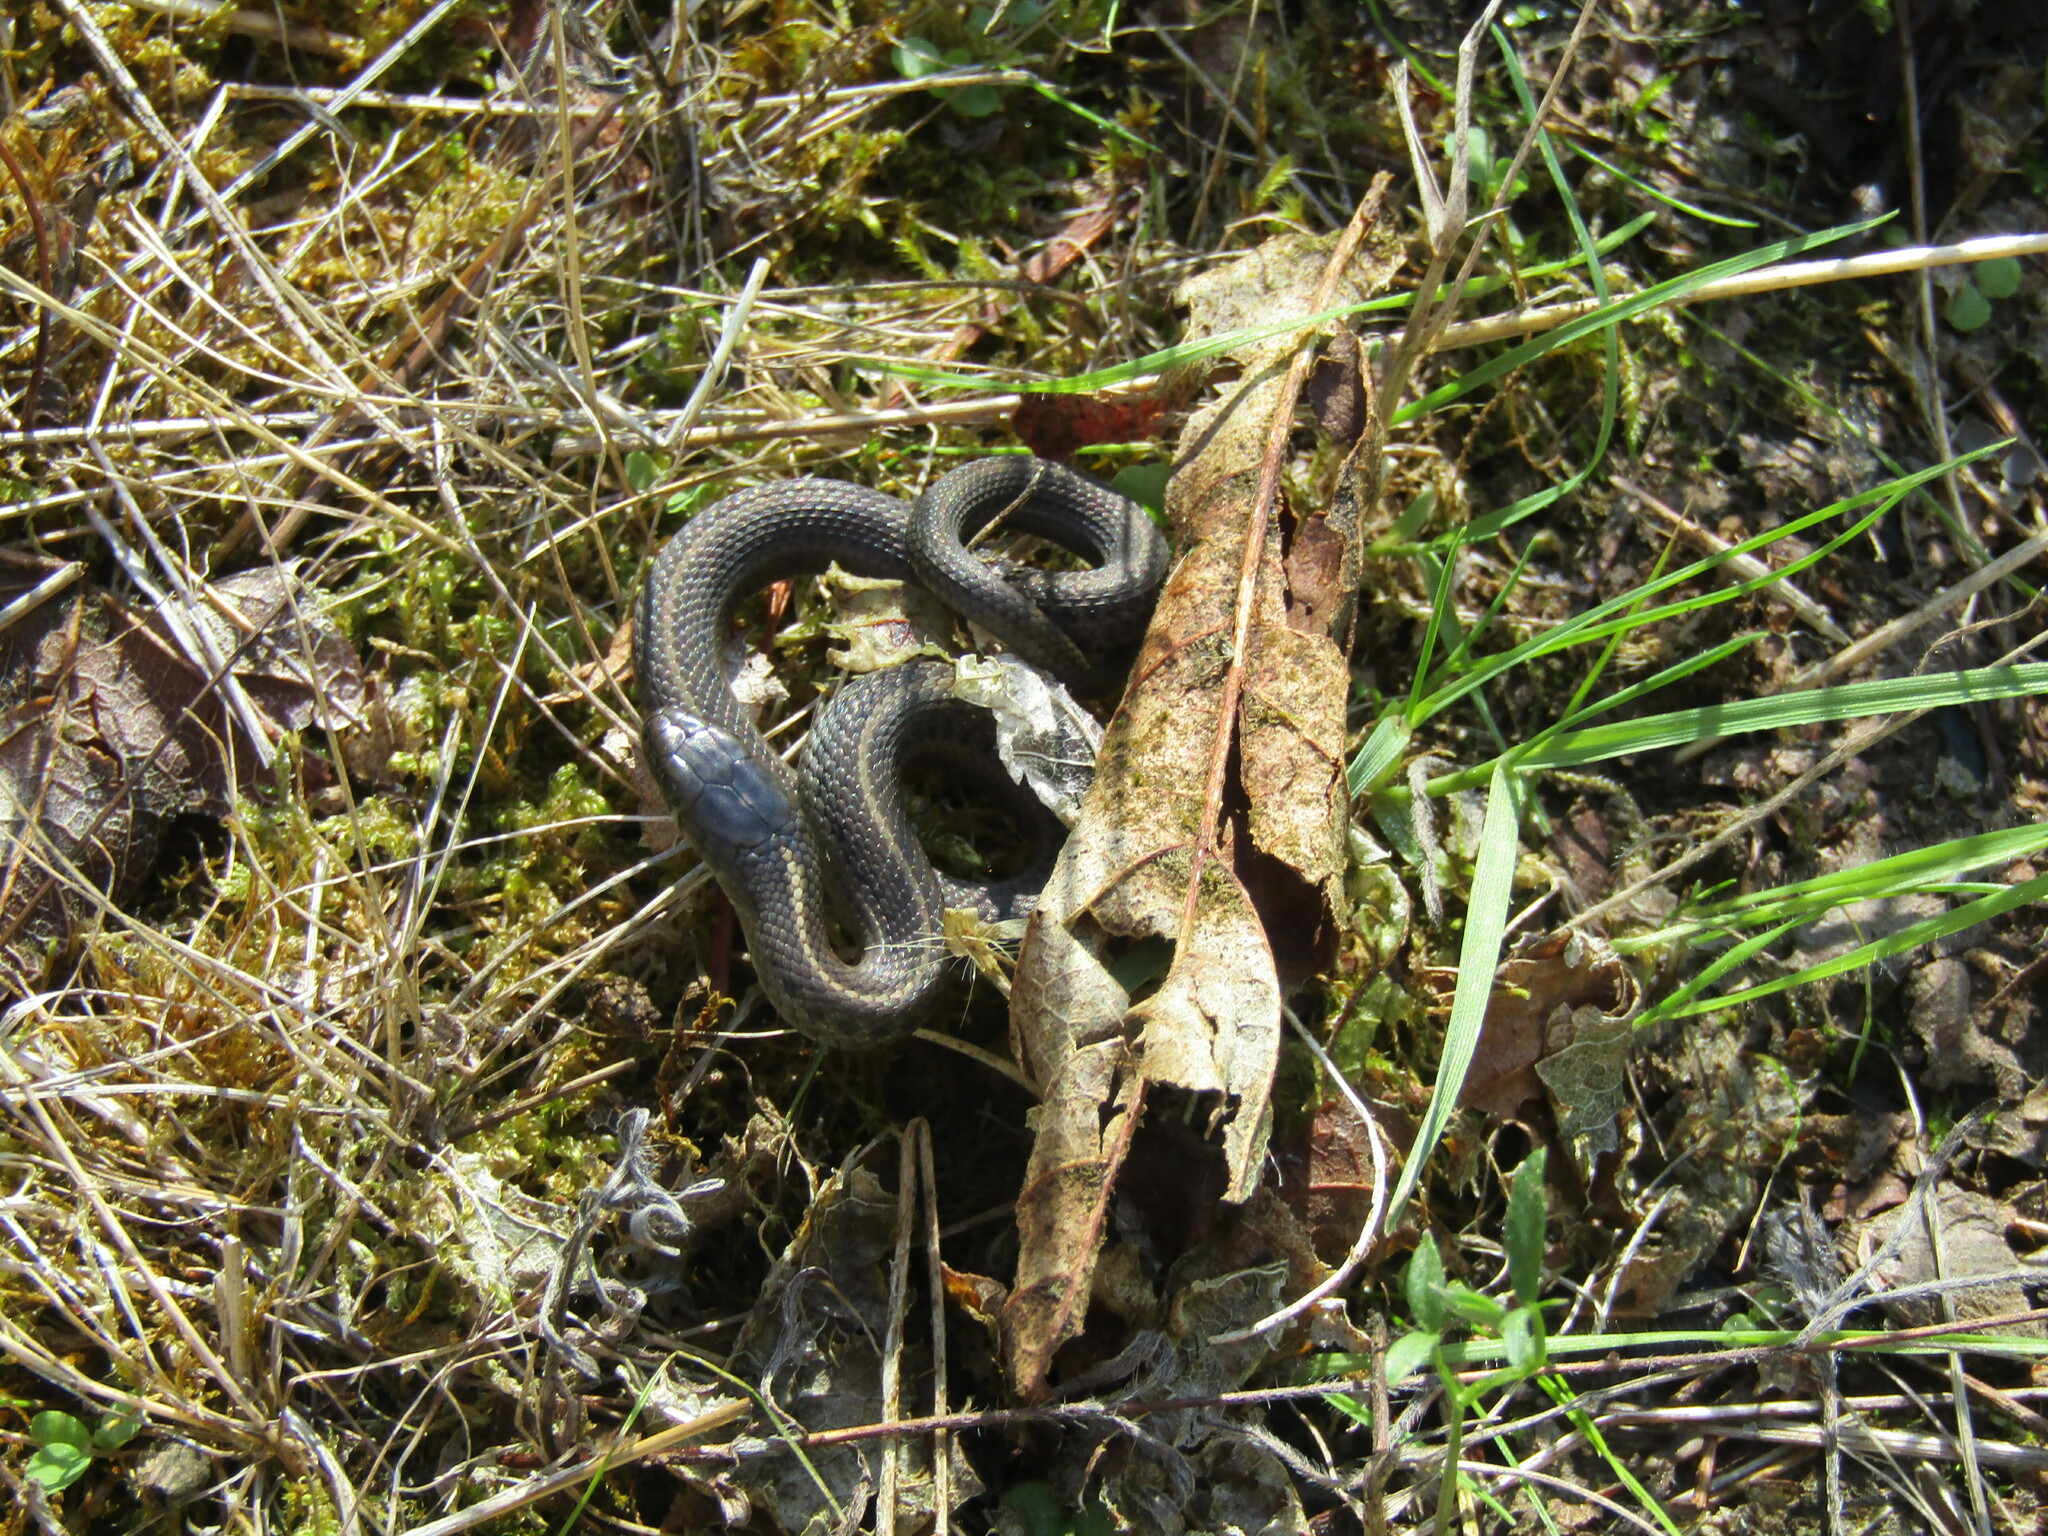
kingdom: Animalia
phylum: Chordata
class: Squamata
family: Colubridae
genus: Thamnophis
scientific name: Thamnophis ordinoides
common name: Northwestern garter snake
